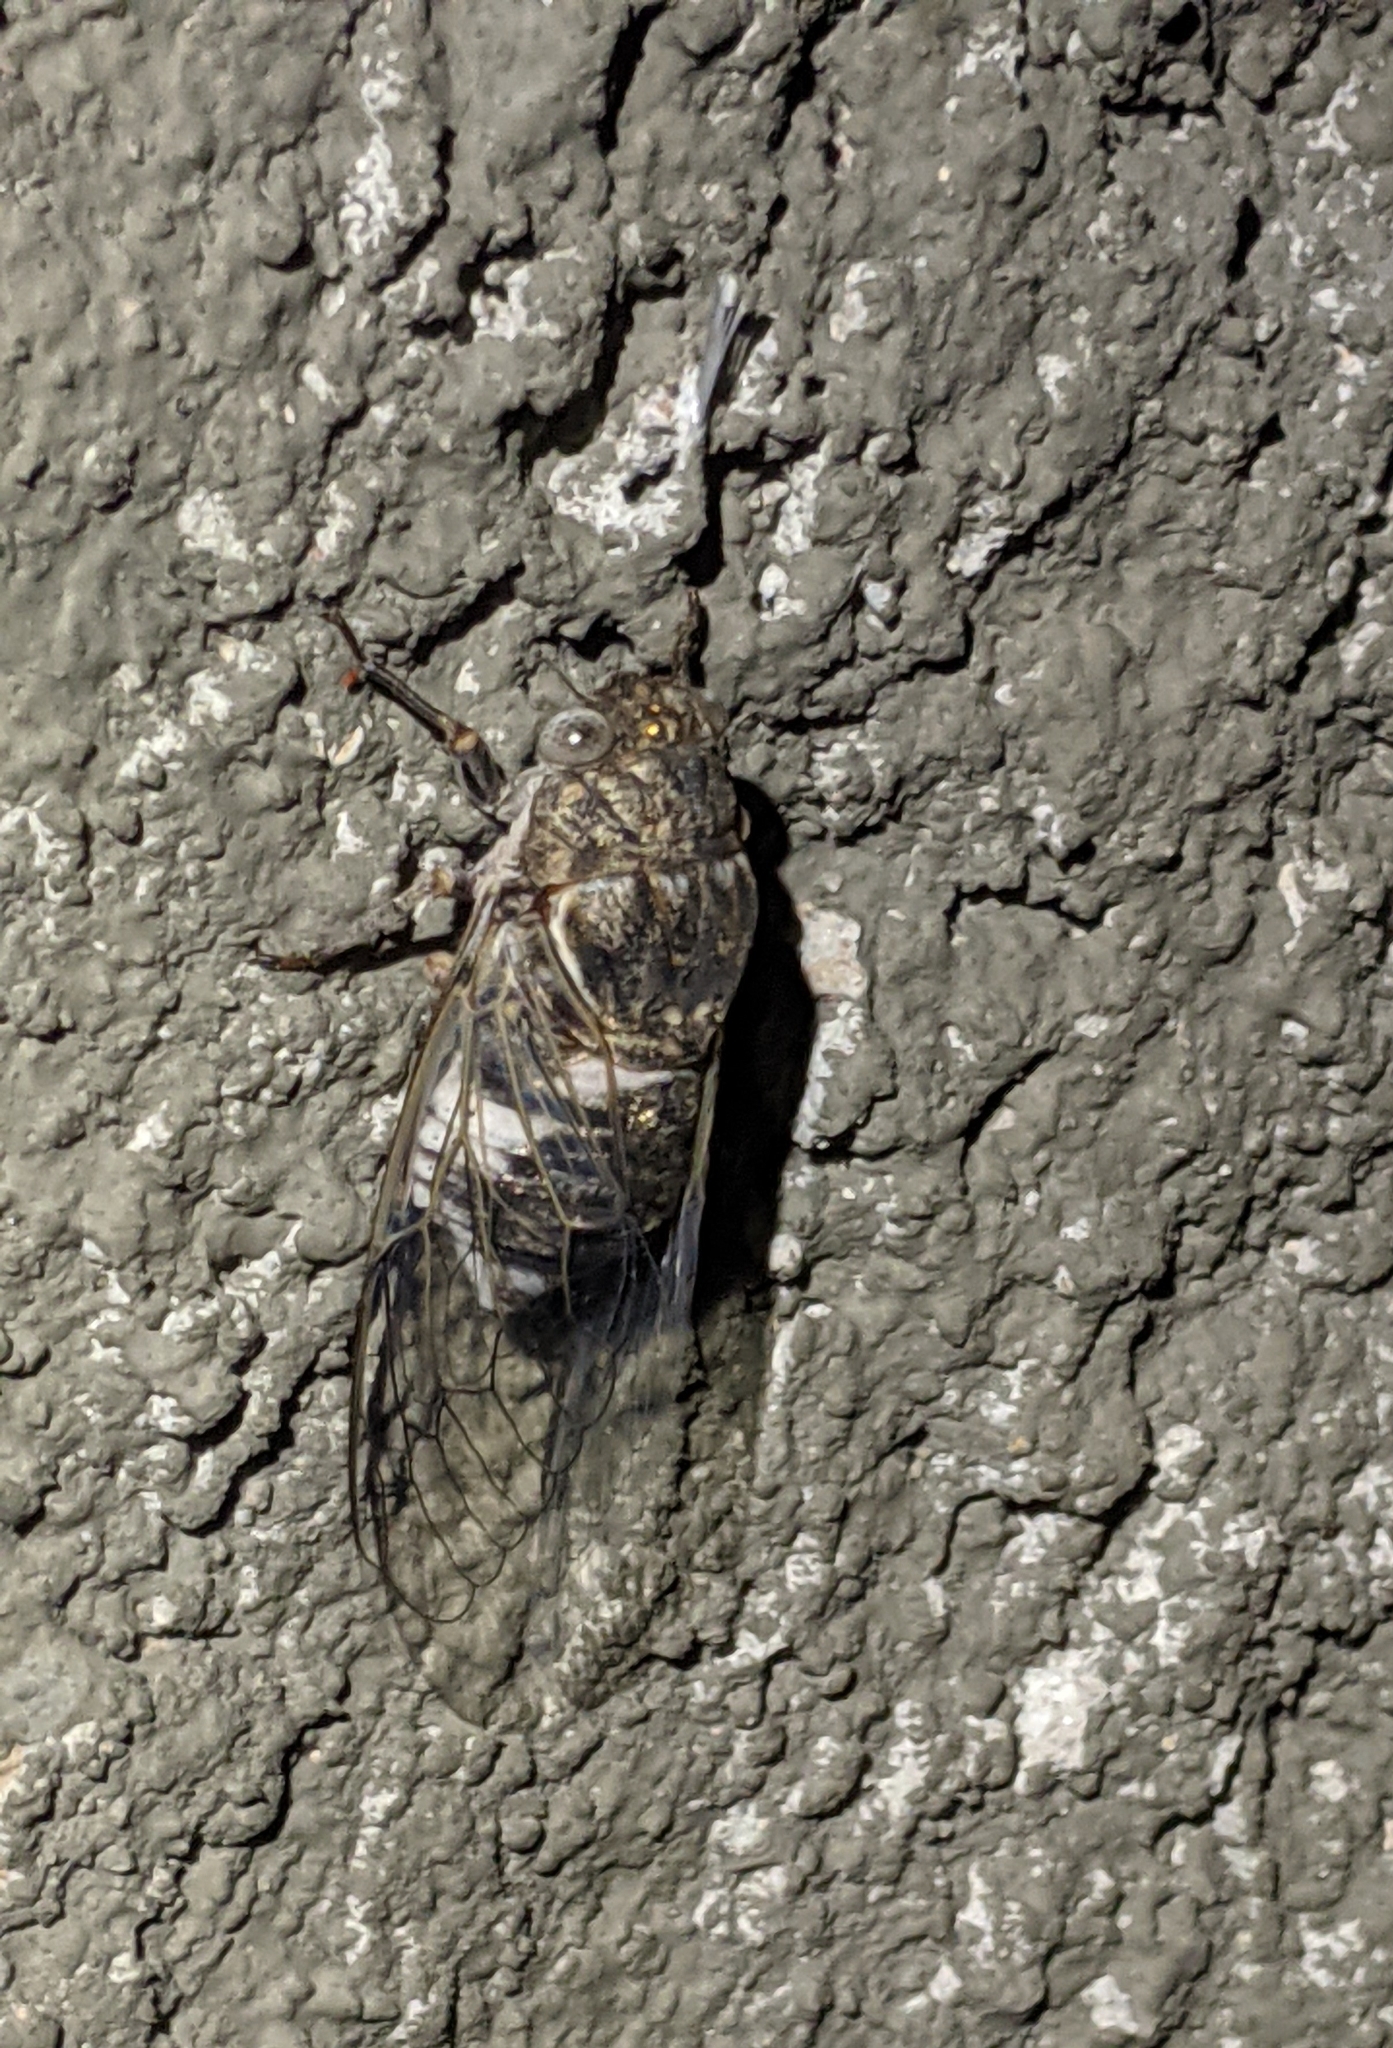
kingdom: Animalia
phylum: Arthropoda
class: Insecta
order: Hemiptera
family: Cicadidae
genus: Cacama
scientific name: Cacama valvata
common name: Cactus dodger
